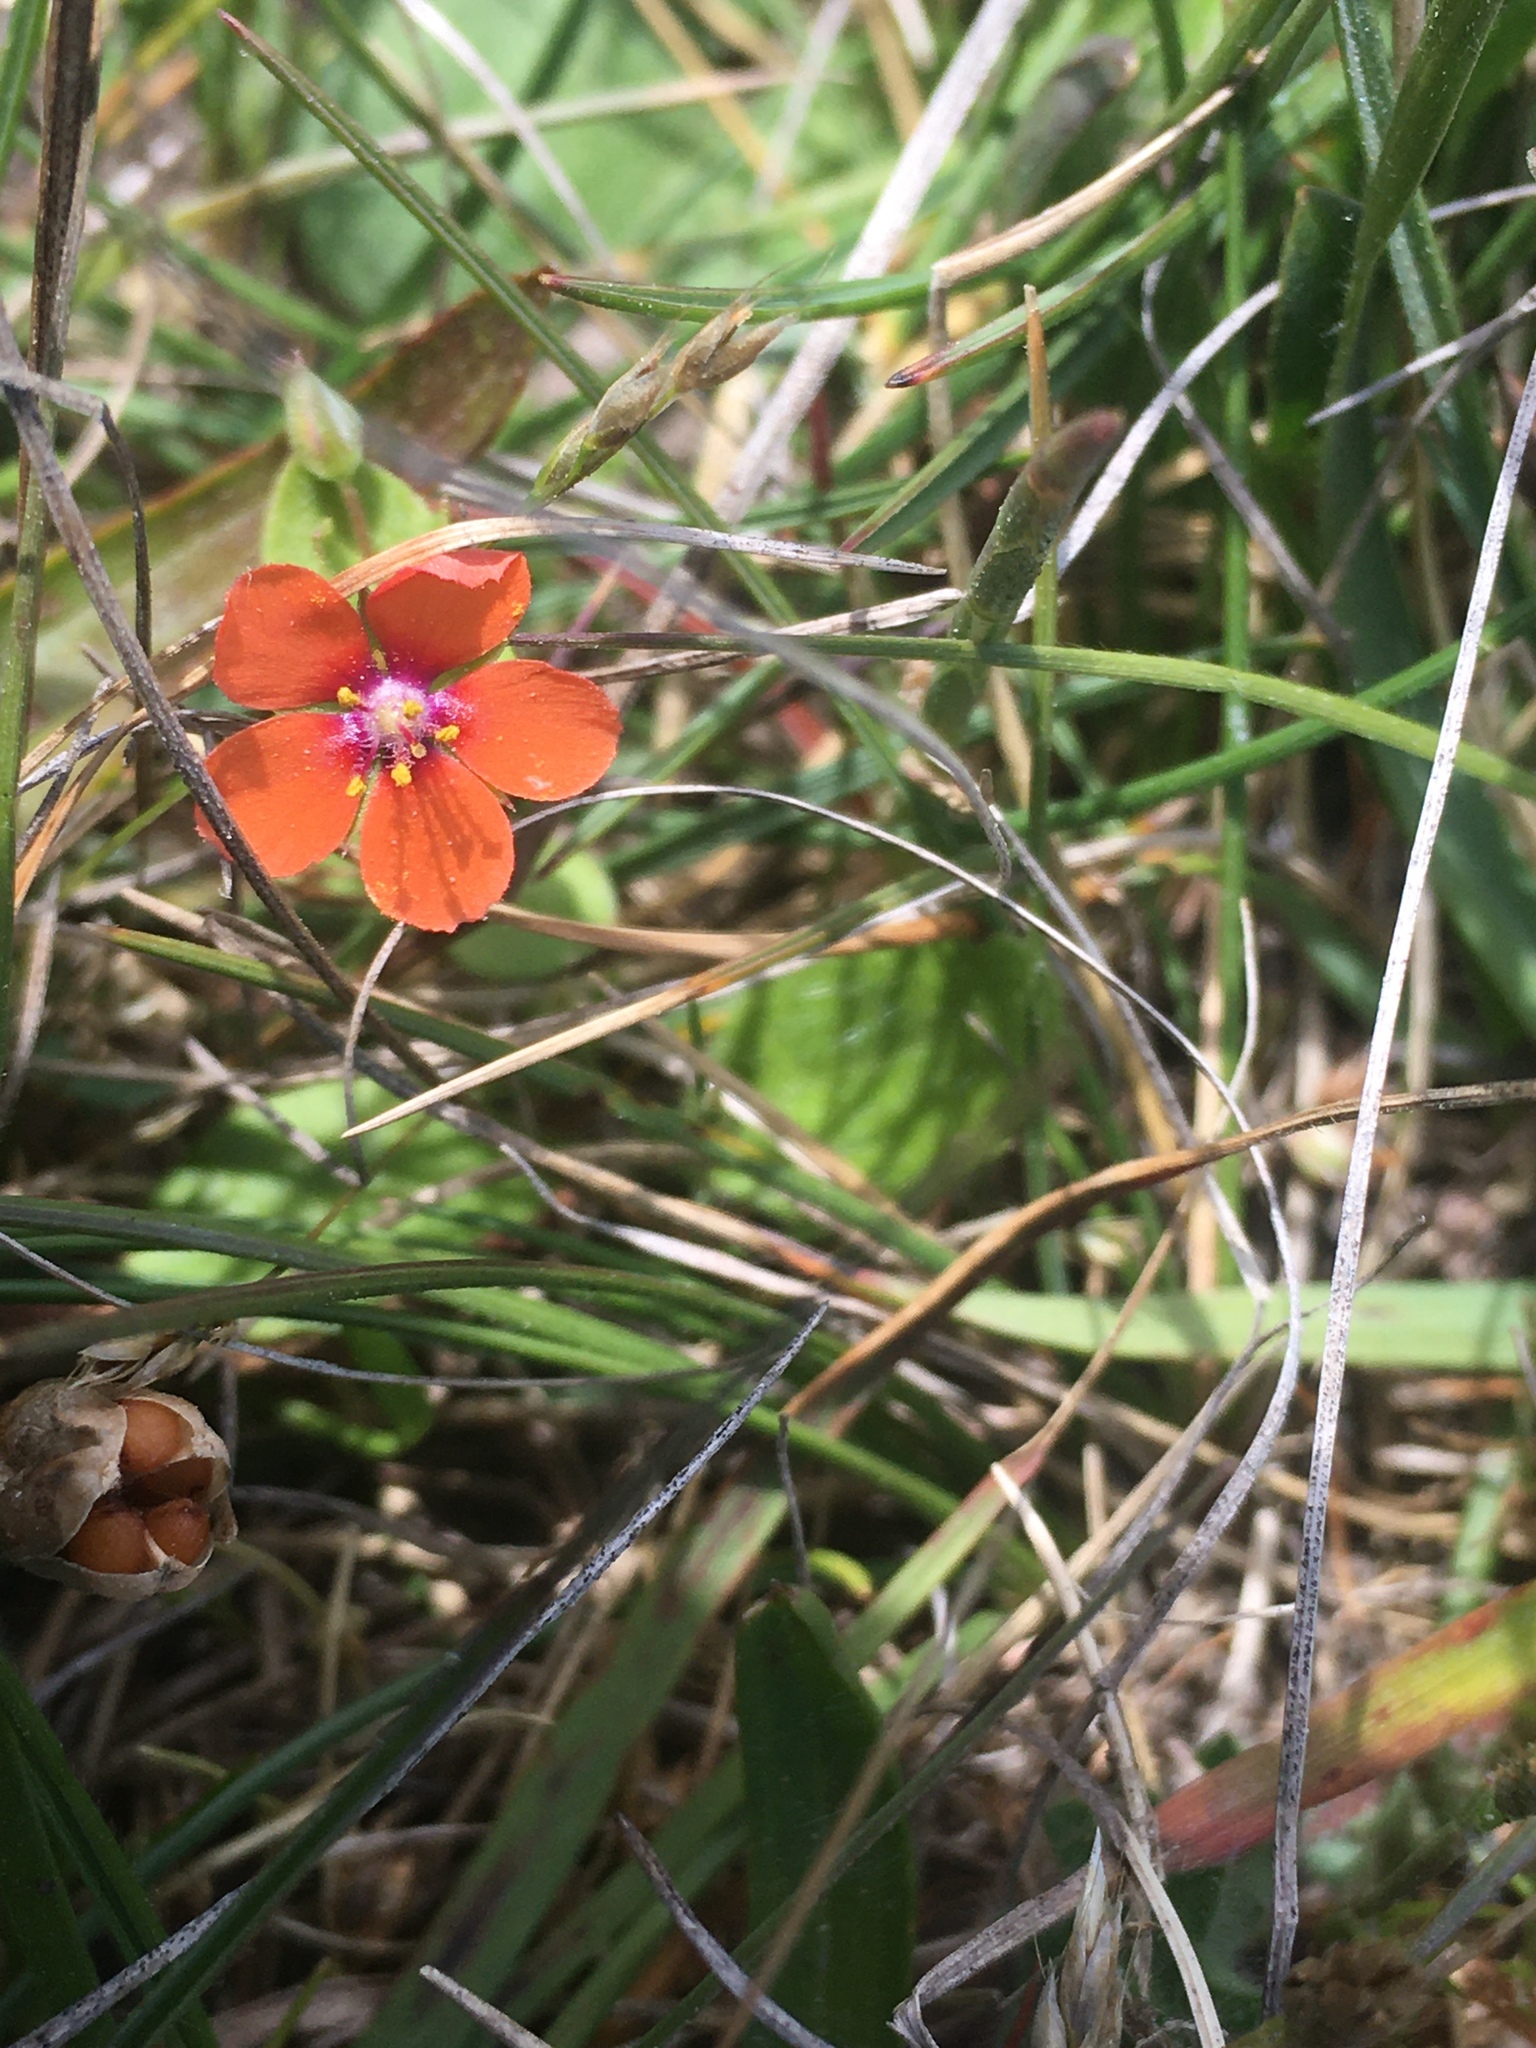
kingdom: Plantae
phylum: Tracheophyta
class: Magnoliopsida
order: Ericales
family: Primulaceae
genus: Lysimachia
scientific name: Lysimachia arvensis
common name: Scarlet pimpernel
